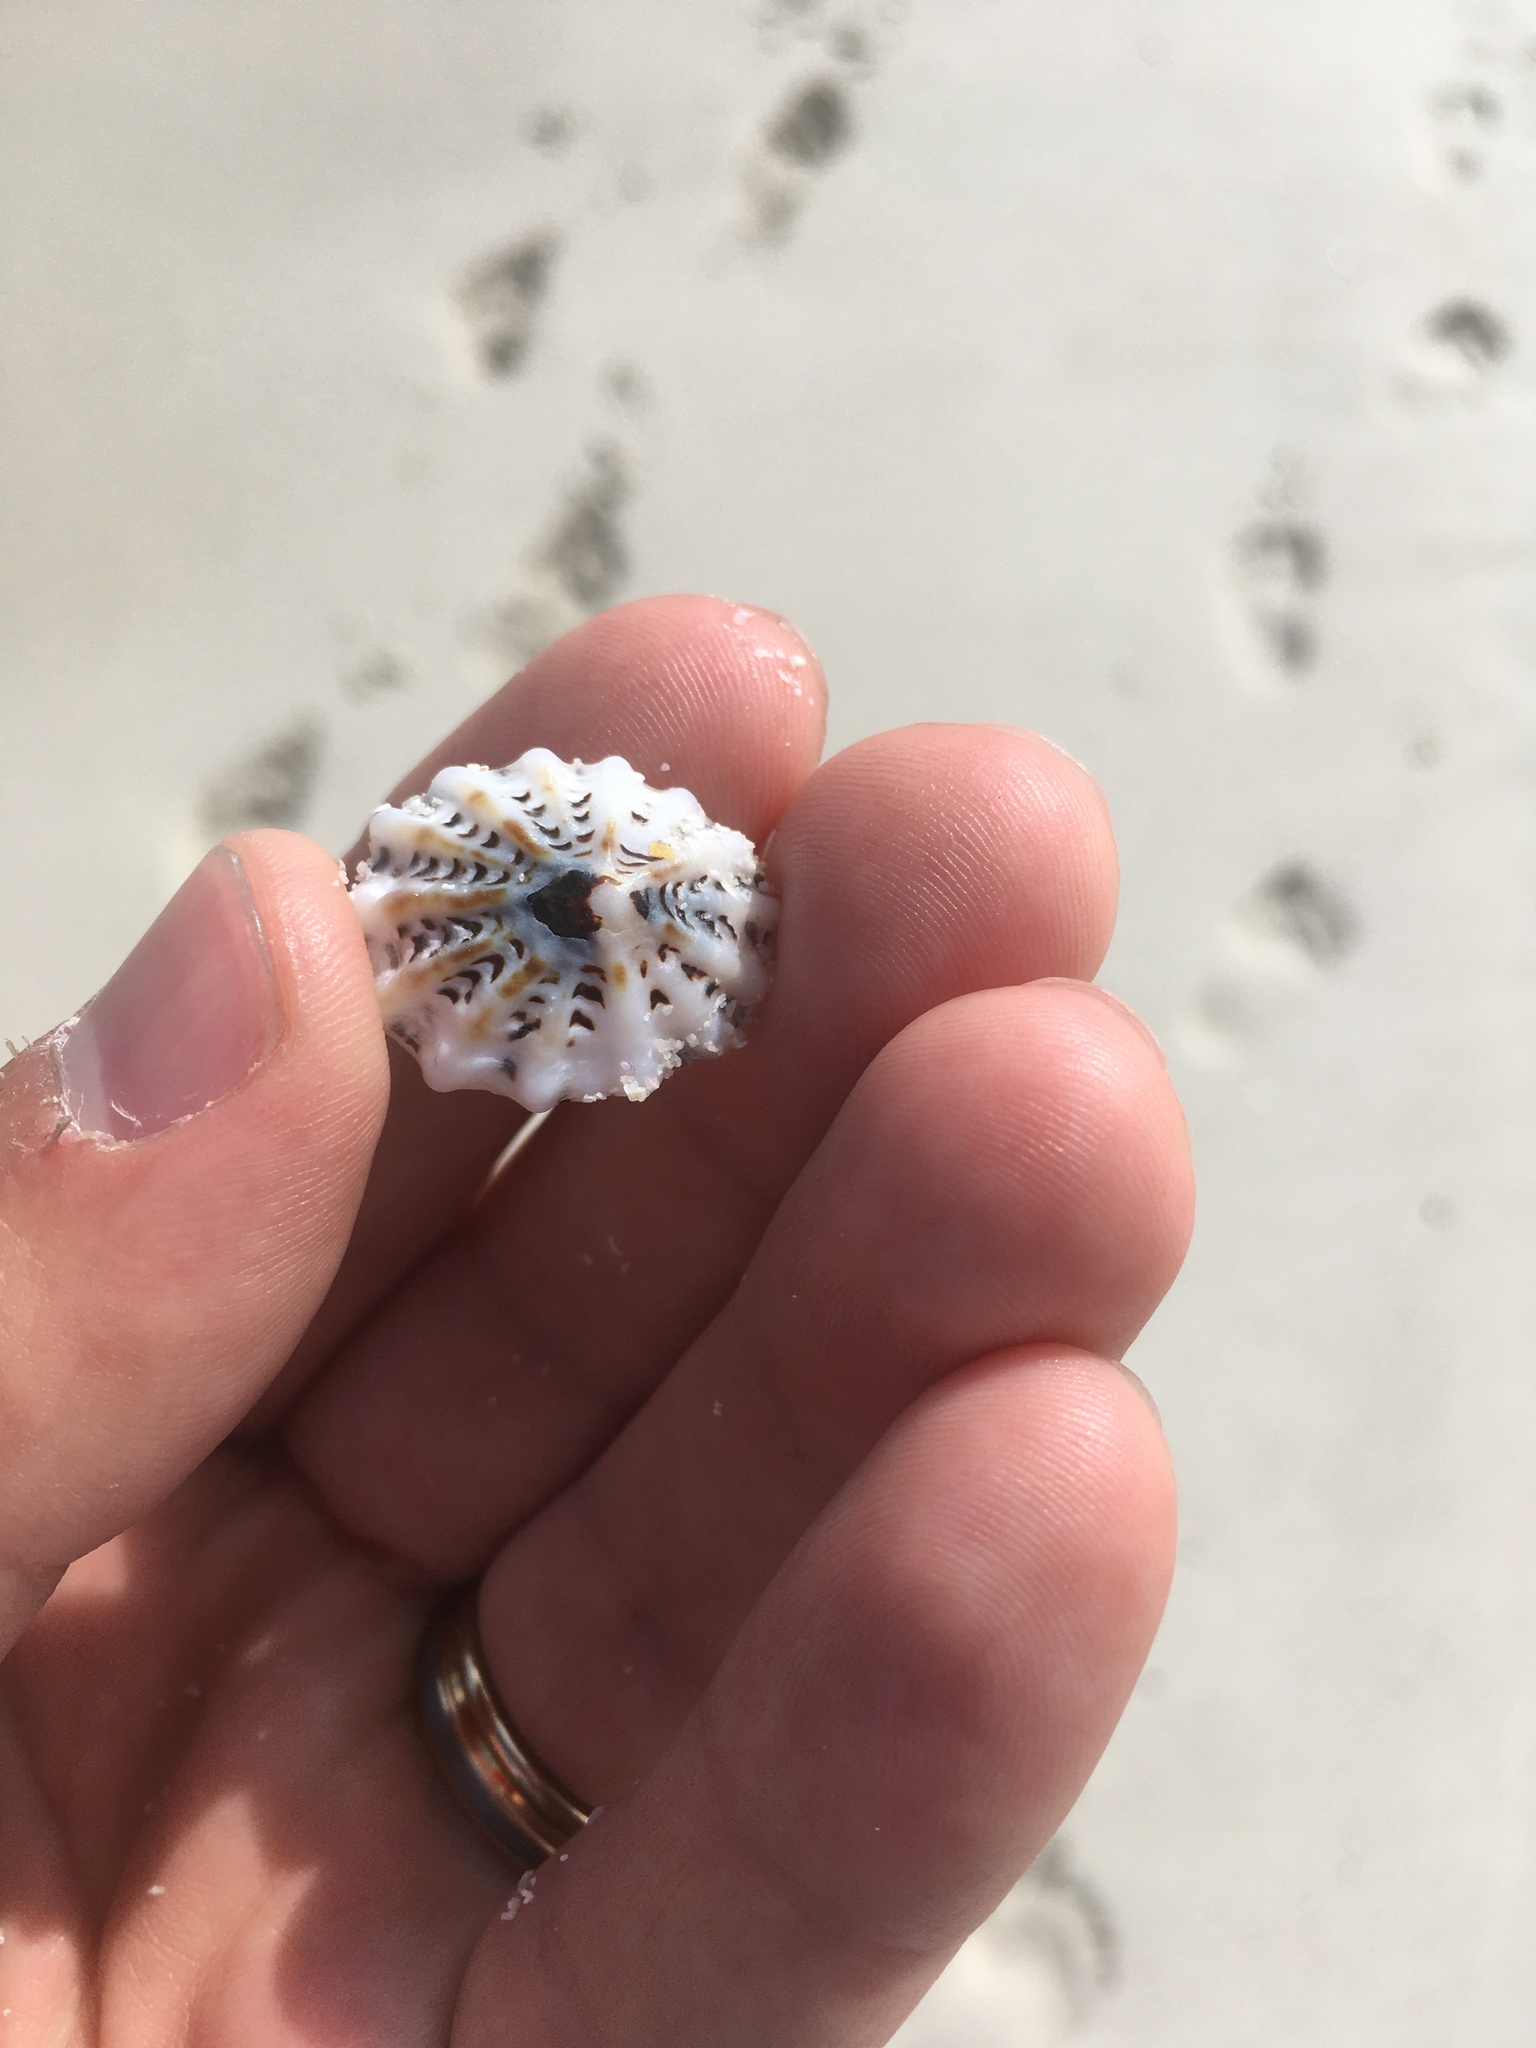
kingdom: Animalia
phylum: Mollusca
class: Gastropoda
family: Lottiidae
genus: Patelloida
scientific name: Patelloida alticostata
